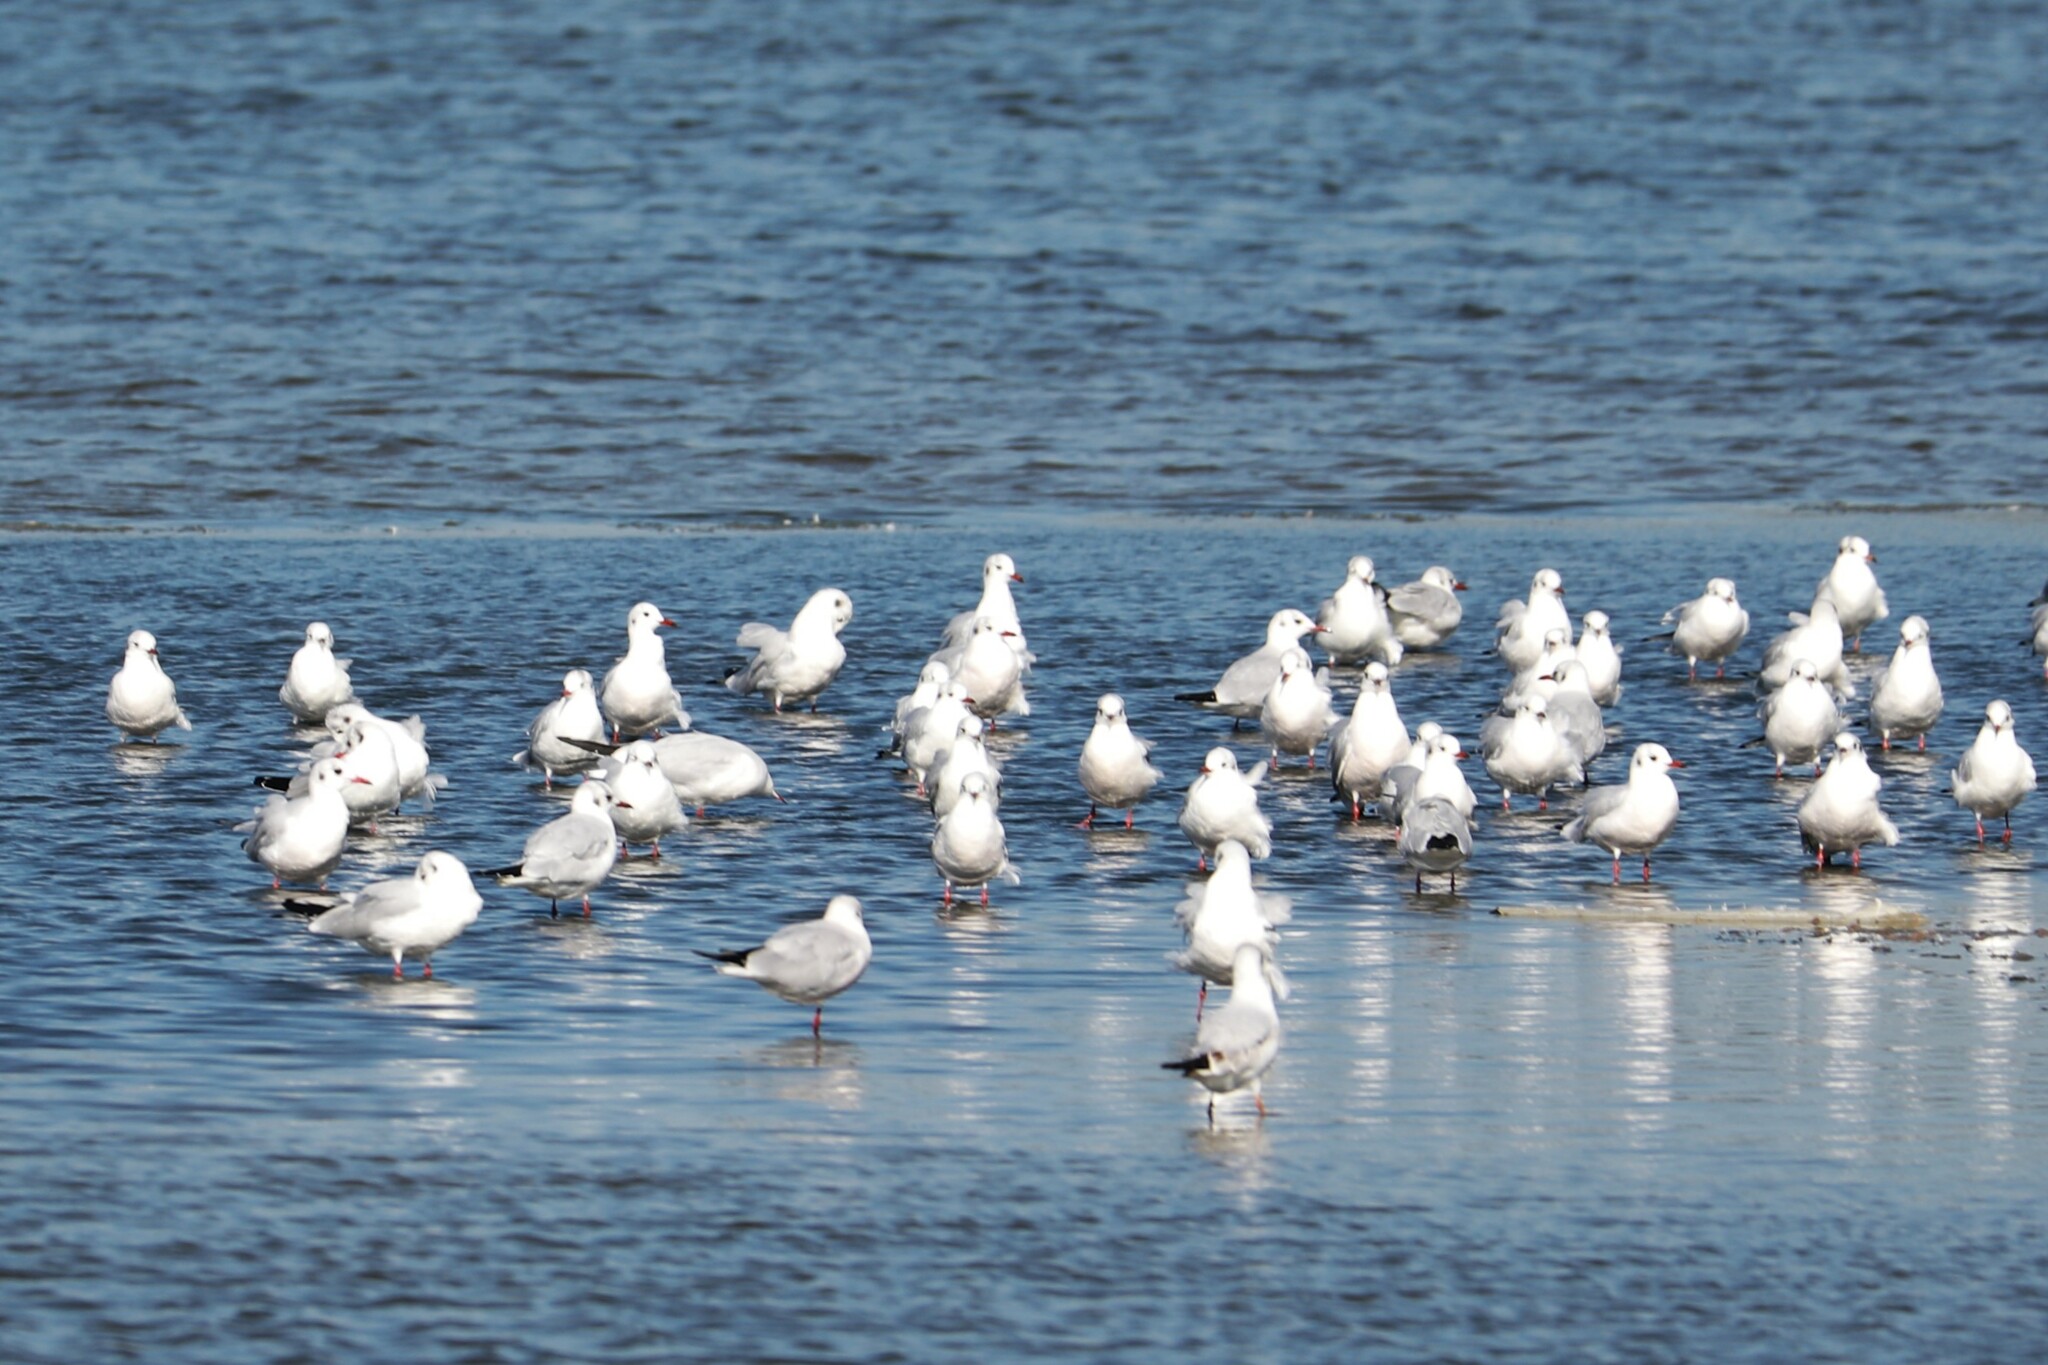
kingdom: Animalia
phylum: Chordata
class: Aves
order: Charadriiformes
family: Laridae
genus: Chroicocephalus
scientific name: Chroicocephalus ridibundus
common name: Black-headed gull
